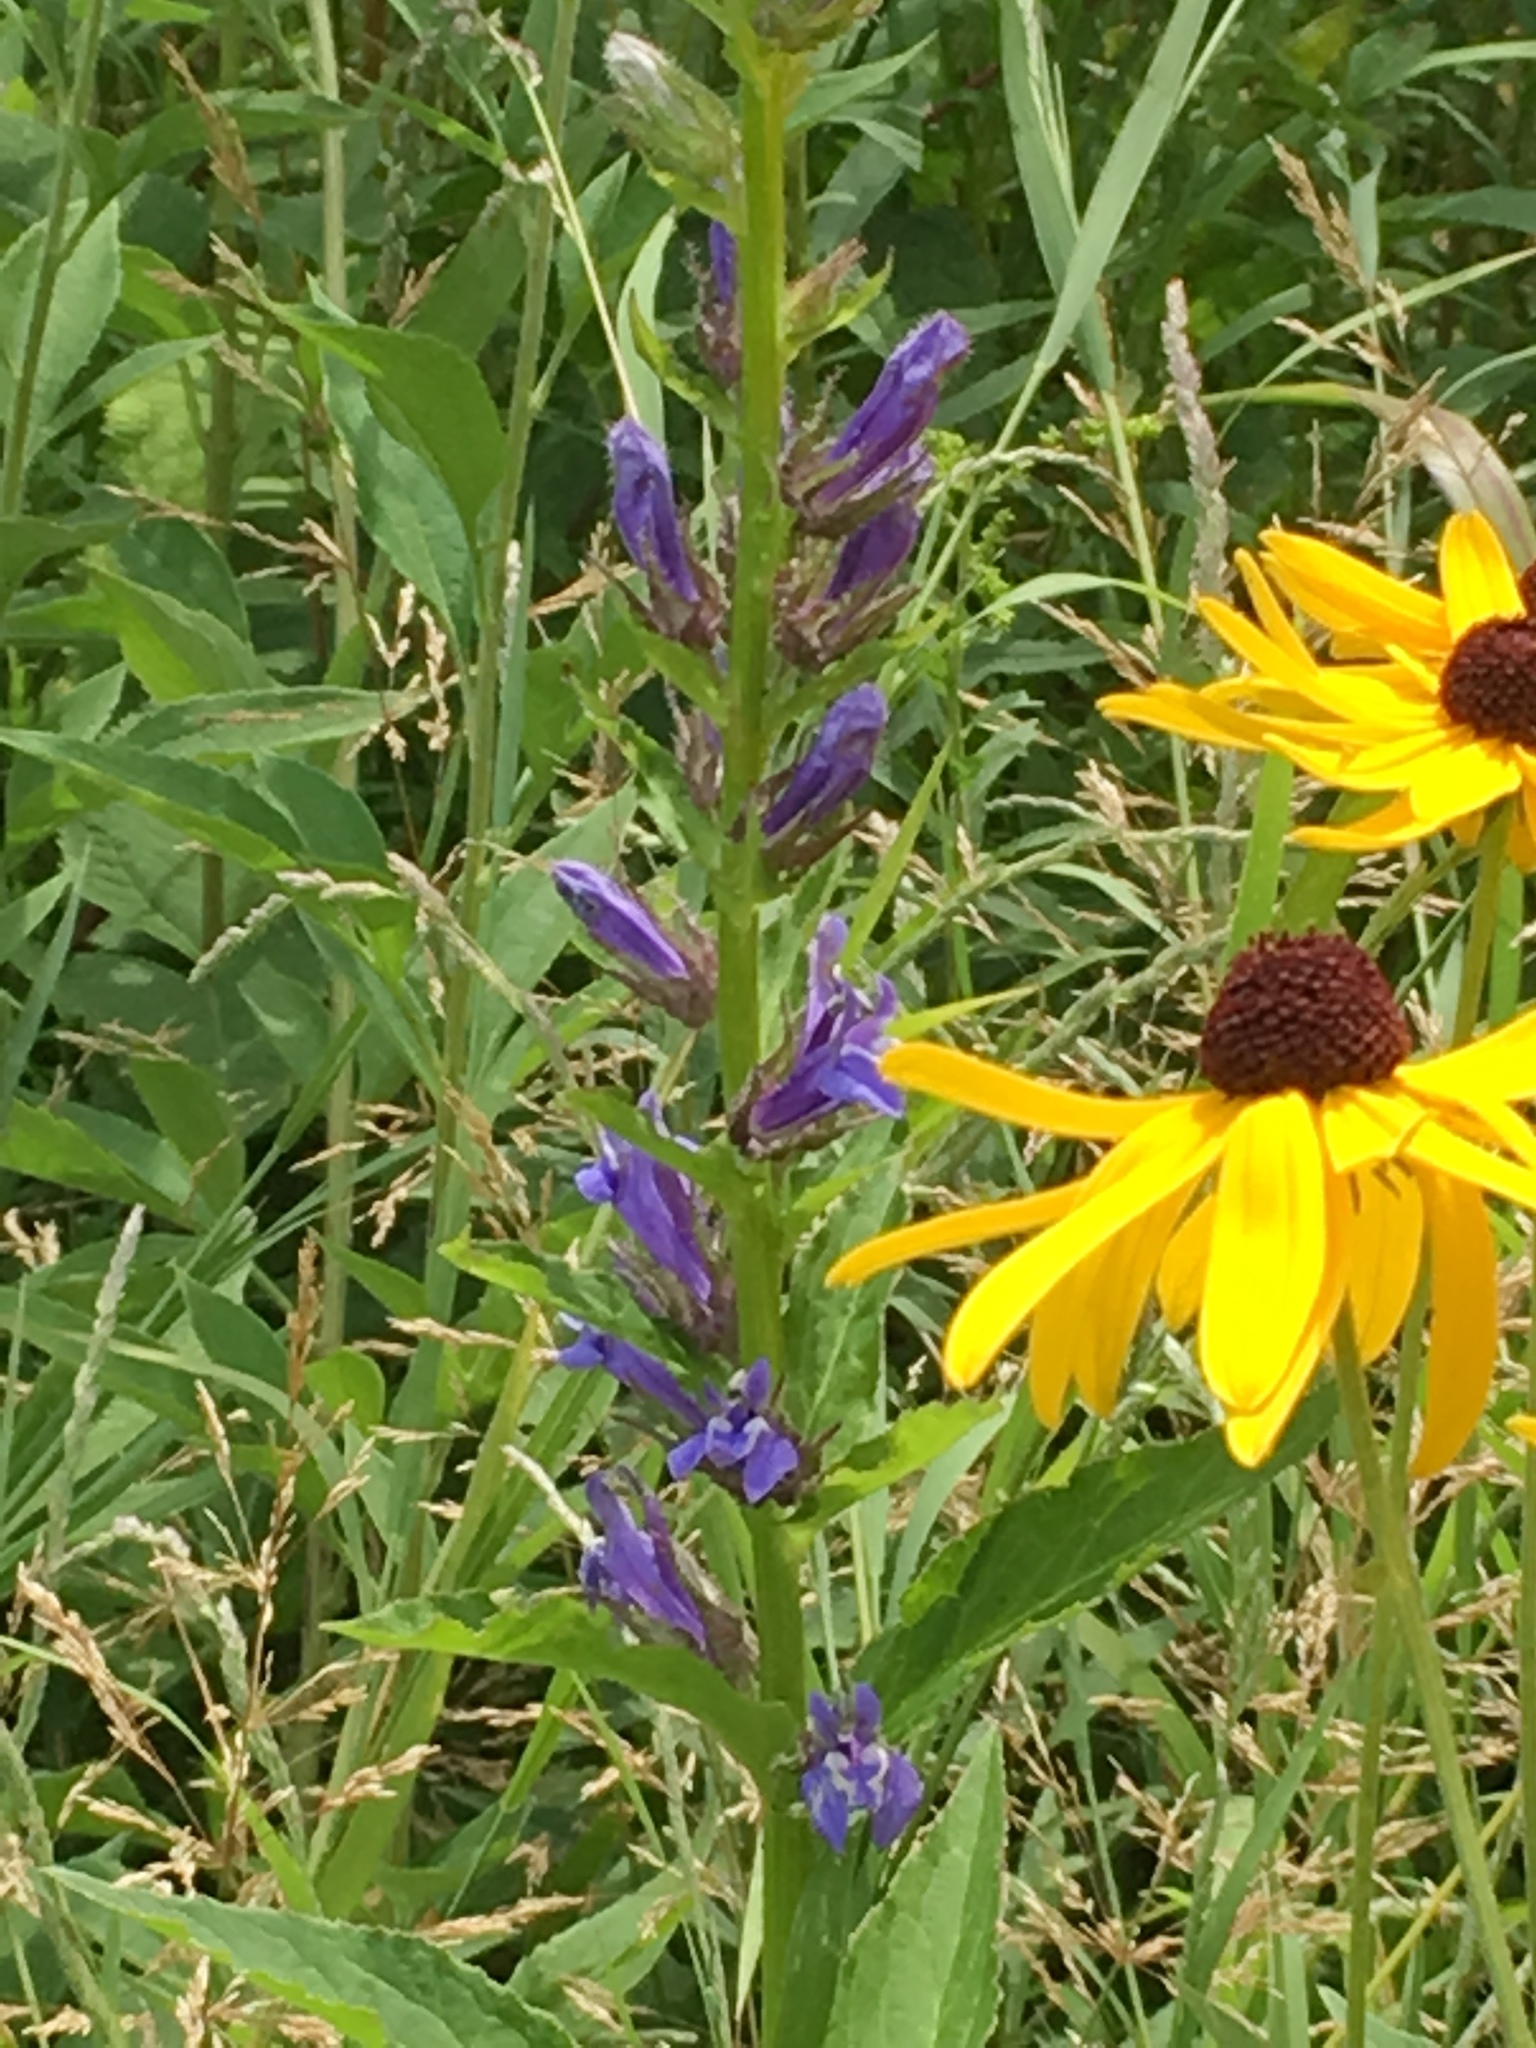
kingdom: Plantae
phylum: Tracheophyta
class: Magnoliopsida
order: Asterales
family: Campanulaceae
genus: Lobelia
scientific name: Lobelia siphilitica
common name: Great lobelia
